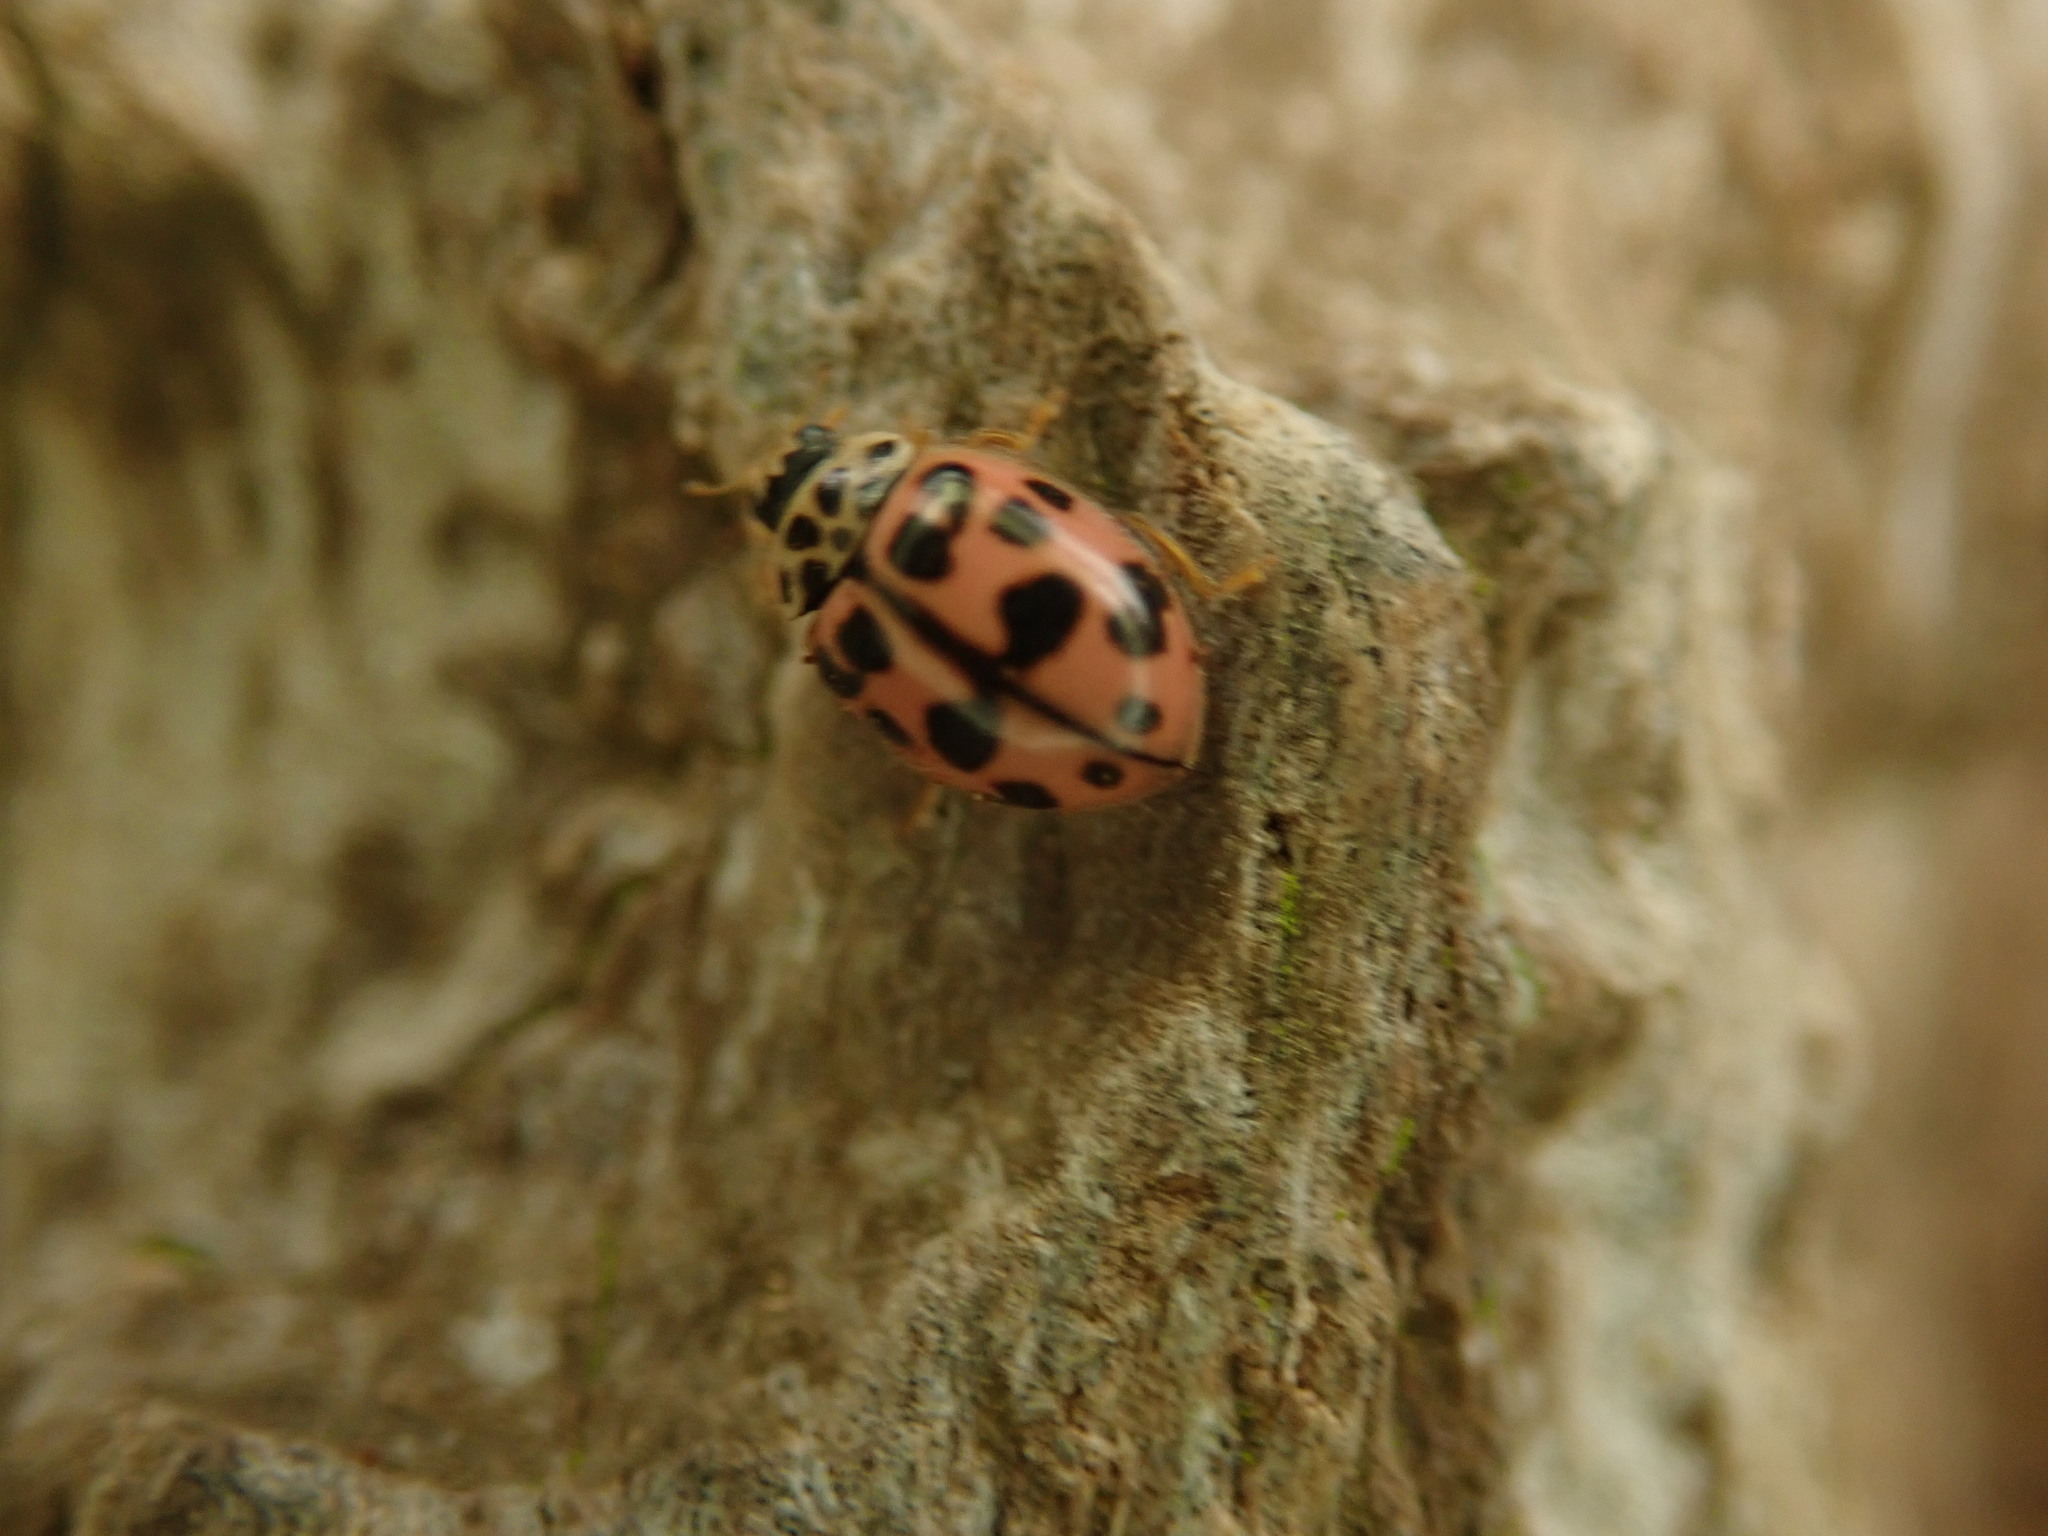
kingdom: Animalia
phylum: Arthropoda
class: Insecta
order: Coleoptera
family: Coccinellidae
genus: Oenopia
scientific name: Oenopia conglobata
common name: Ladybird beetle
